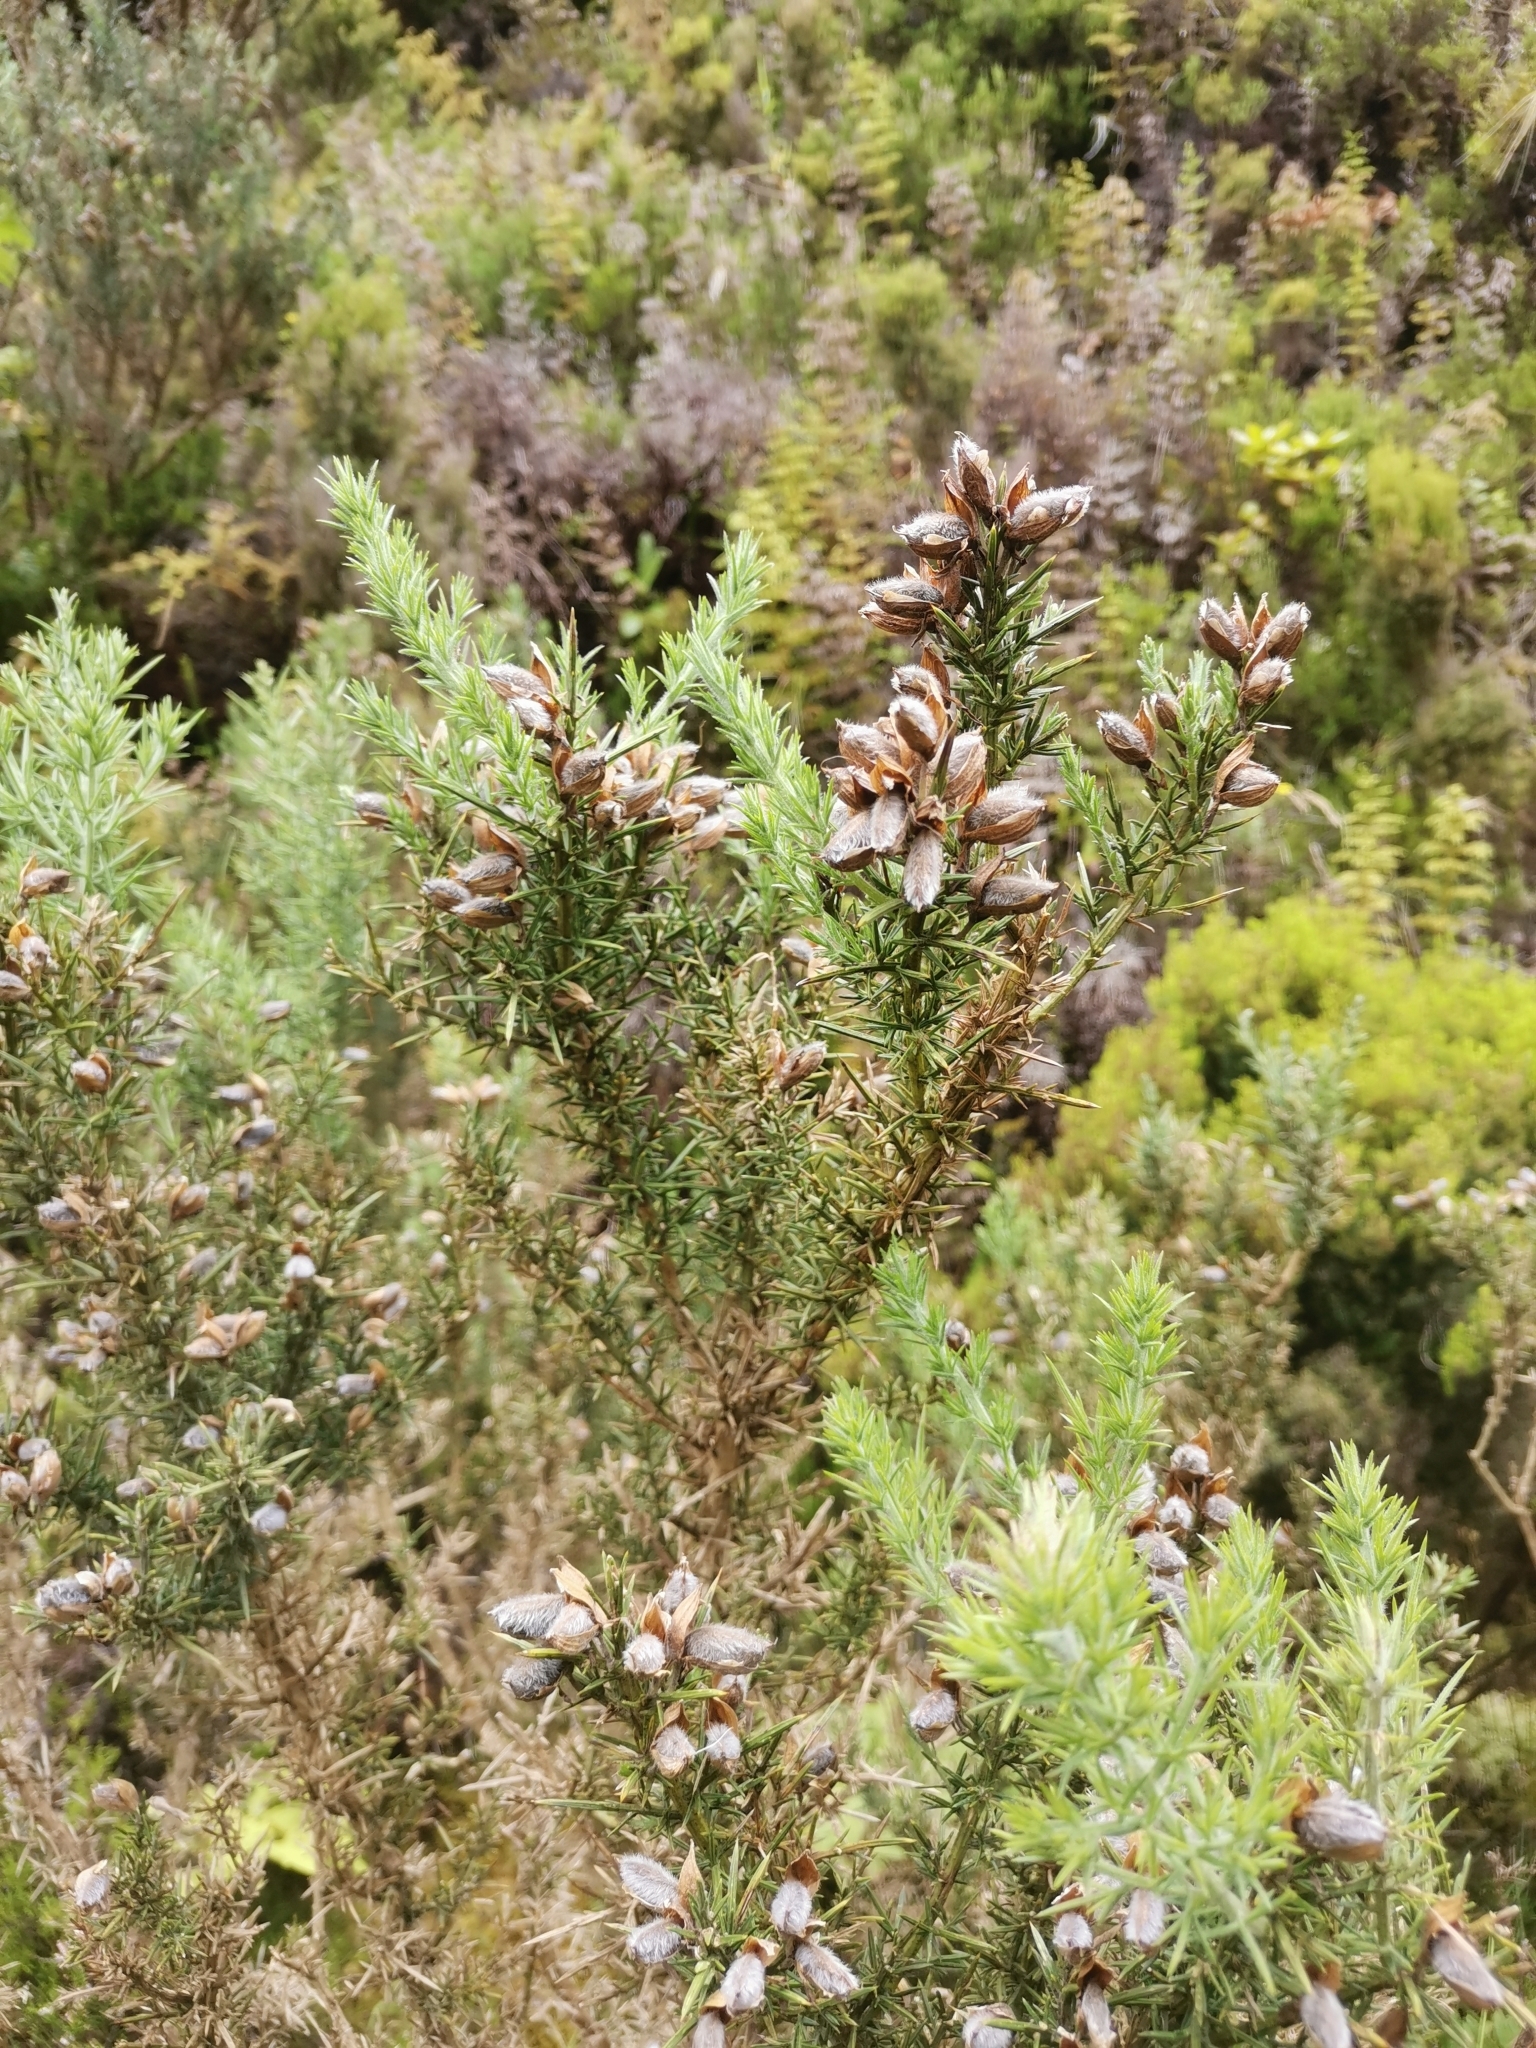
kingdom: Plantae
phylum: Tracheophyta
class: Magnoliopsida
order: Fabales
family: Fabaceae
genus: Ulex
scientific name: Ulex europaeus
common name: Common gorse
